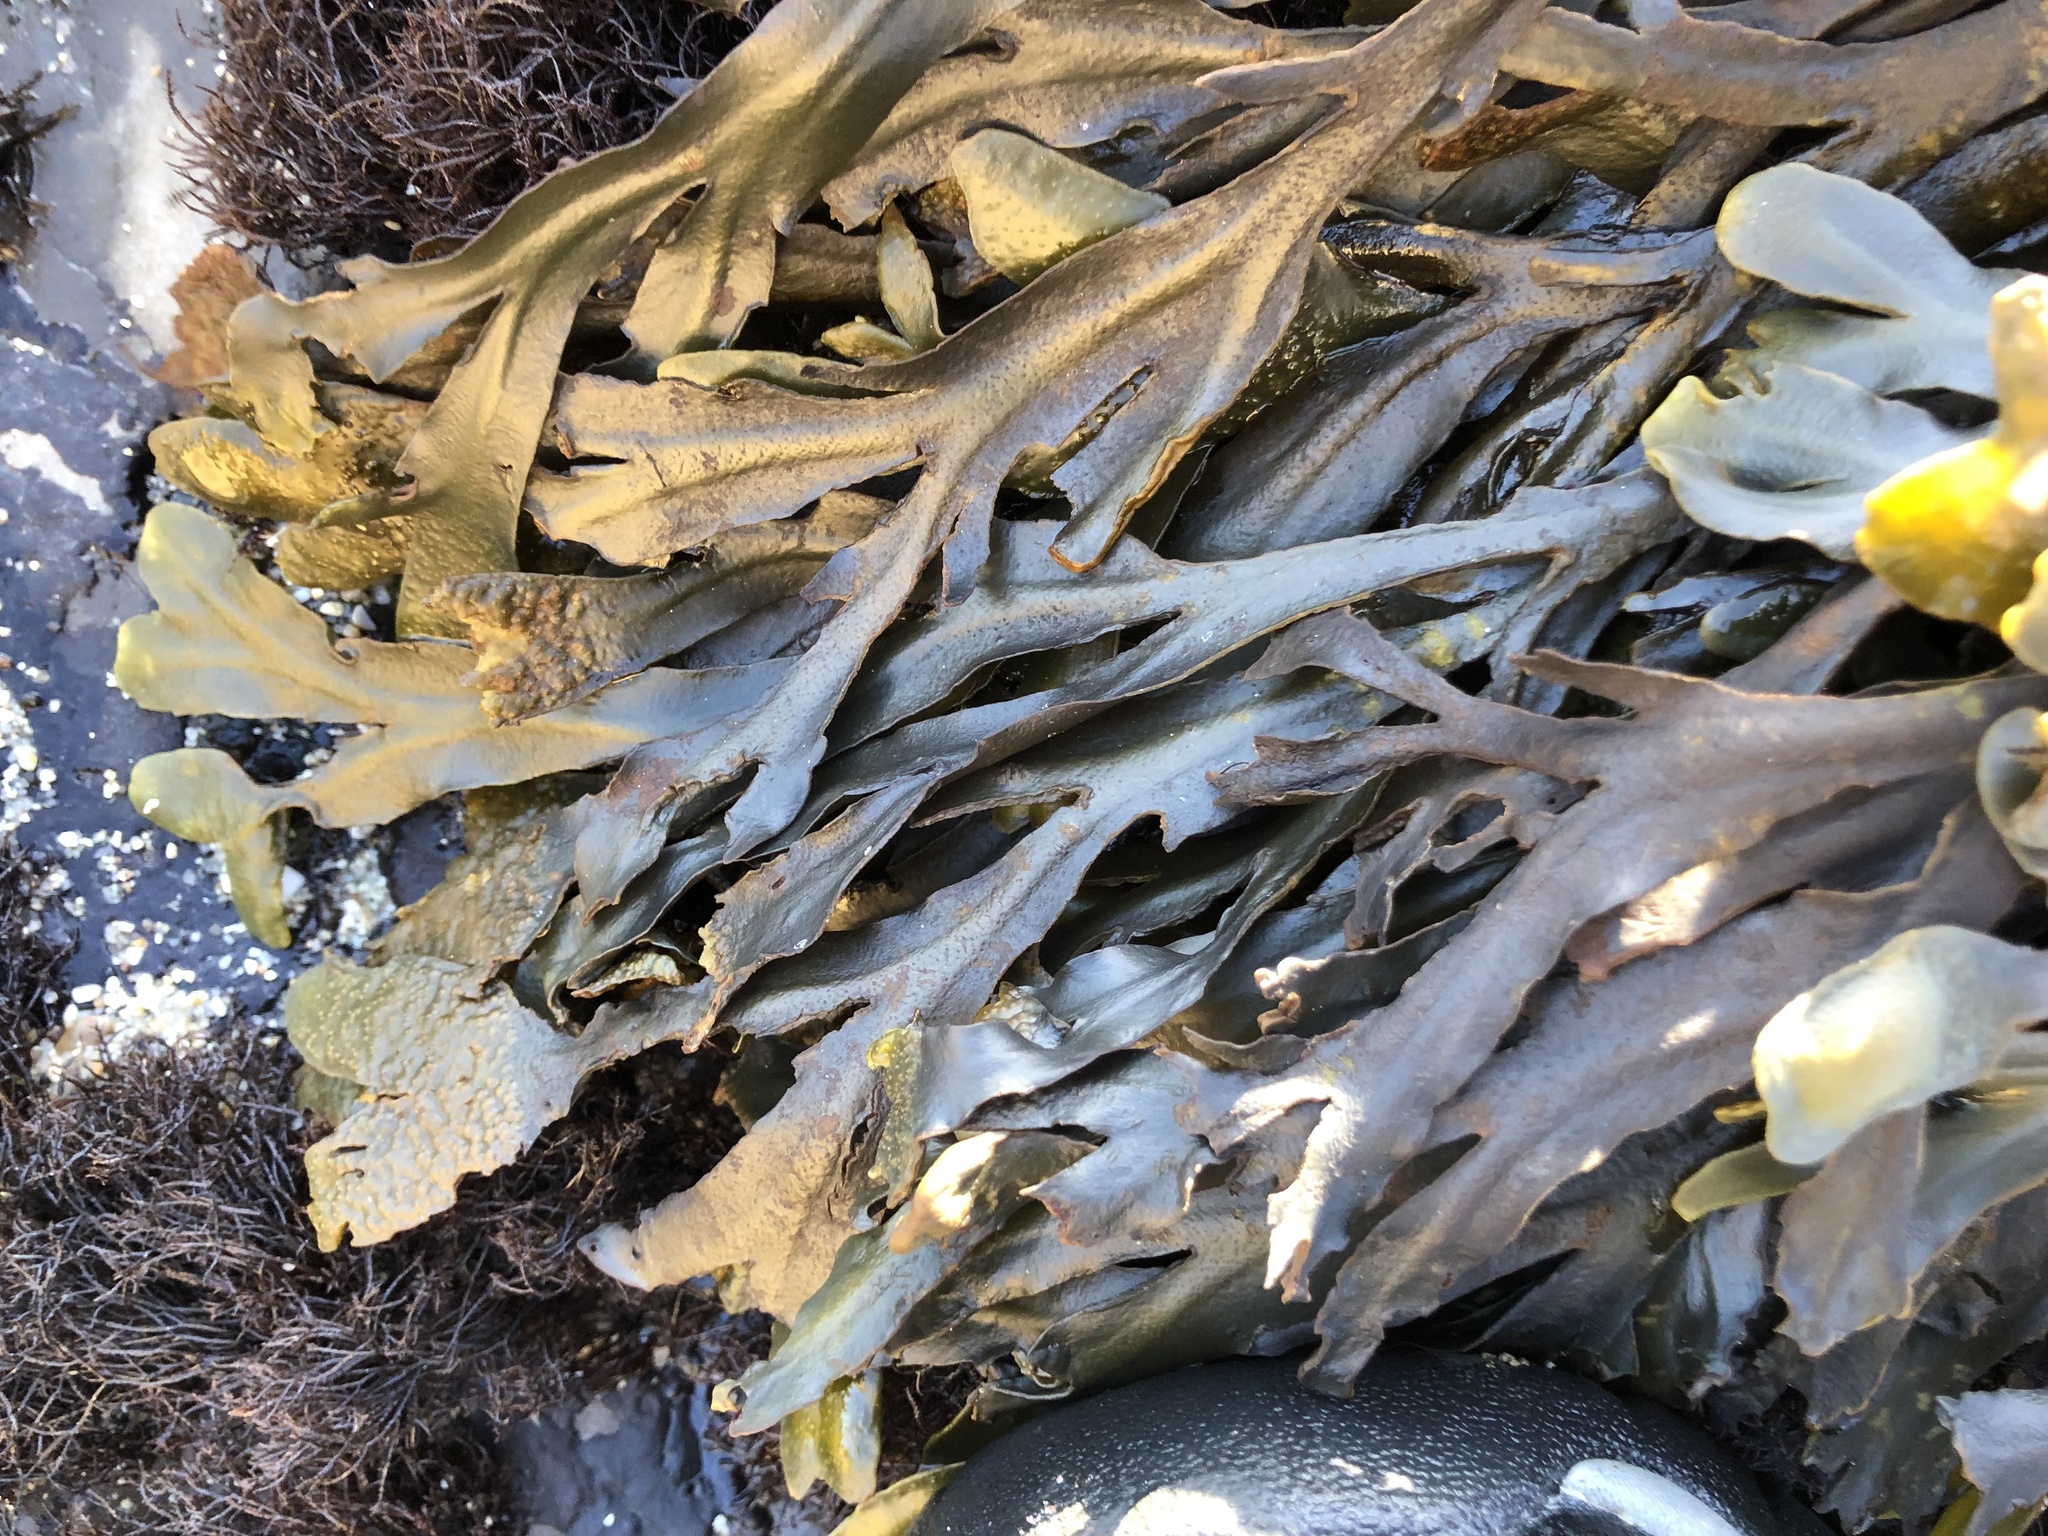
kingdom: Chromista
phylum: Ochrophyta
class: Phaeophyceae
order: Fucales
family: Fucaceae
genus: Fucus
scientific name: Fucus distichus
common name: Rockweed
